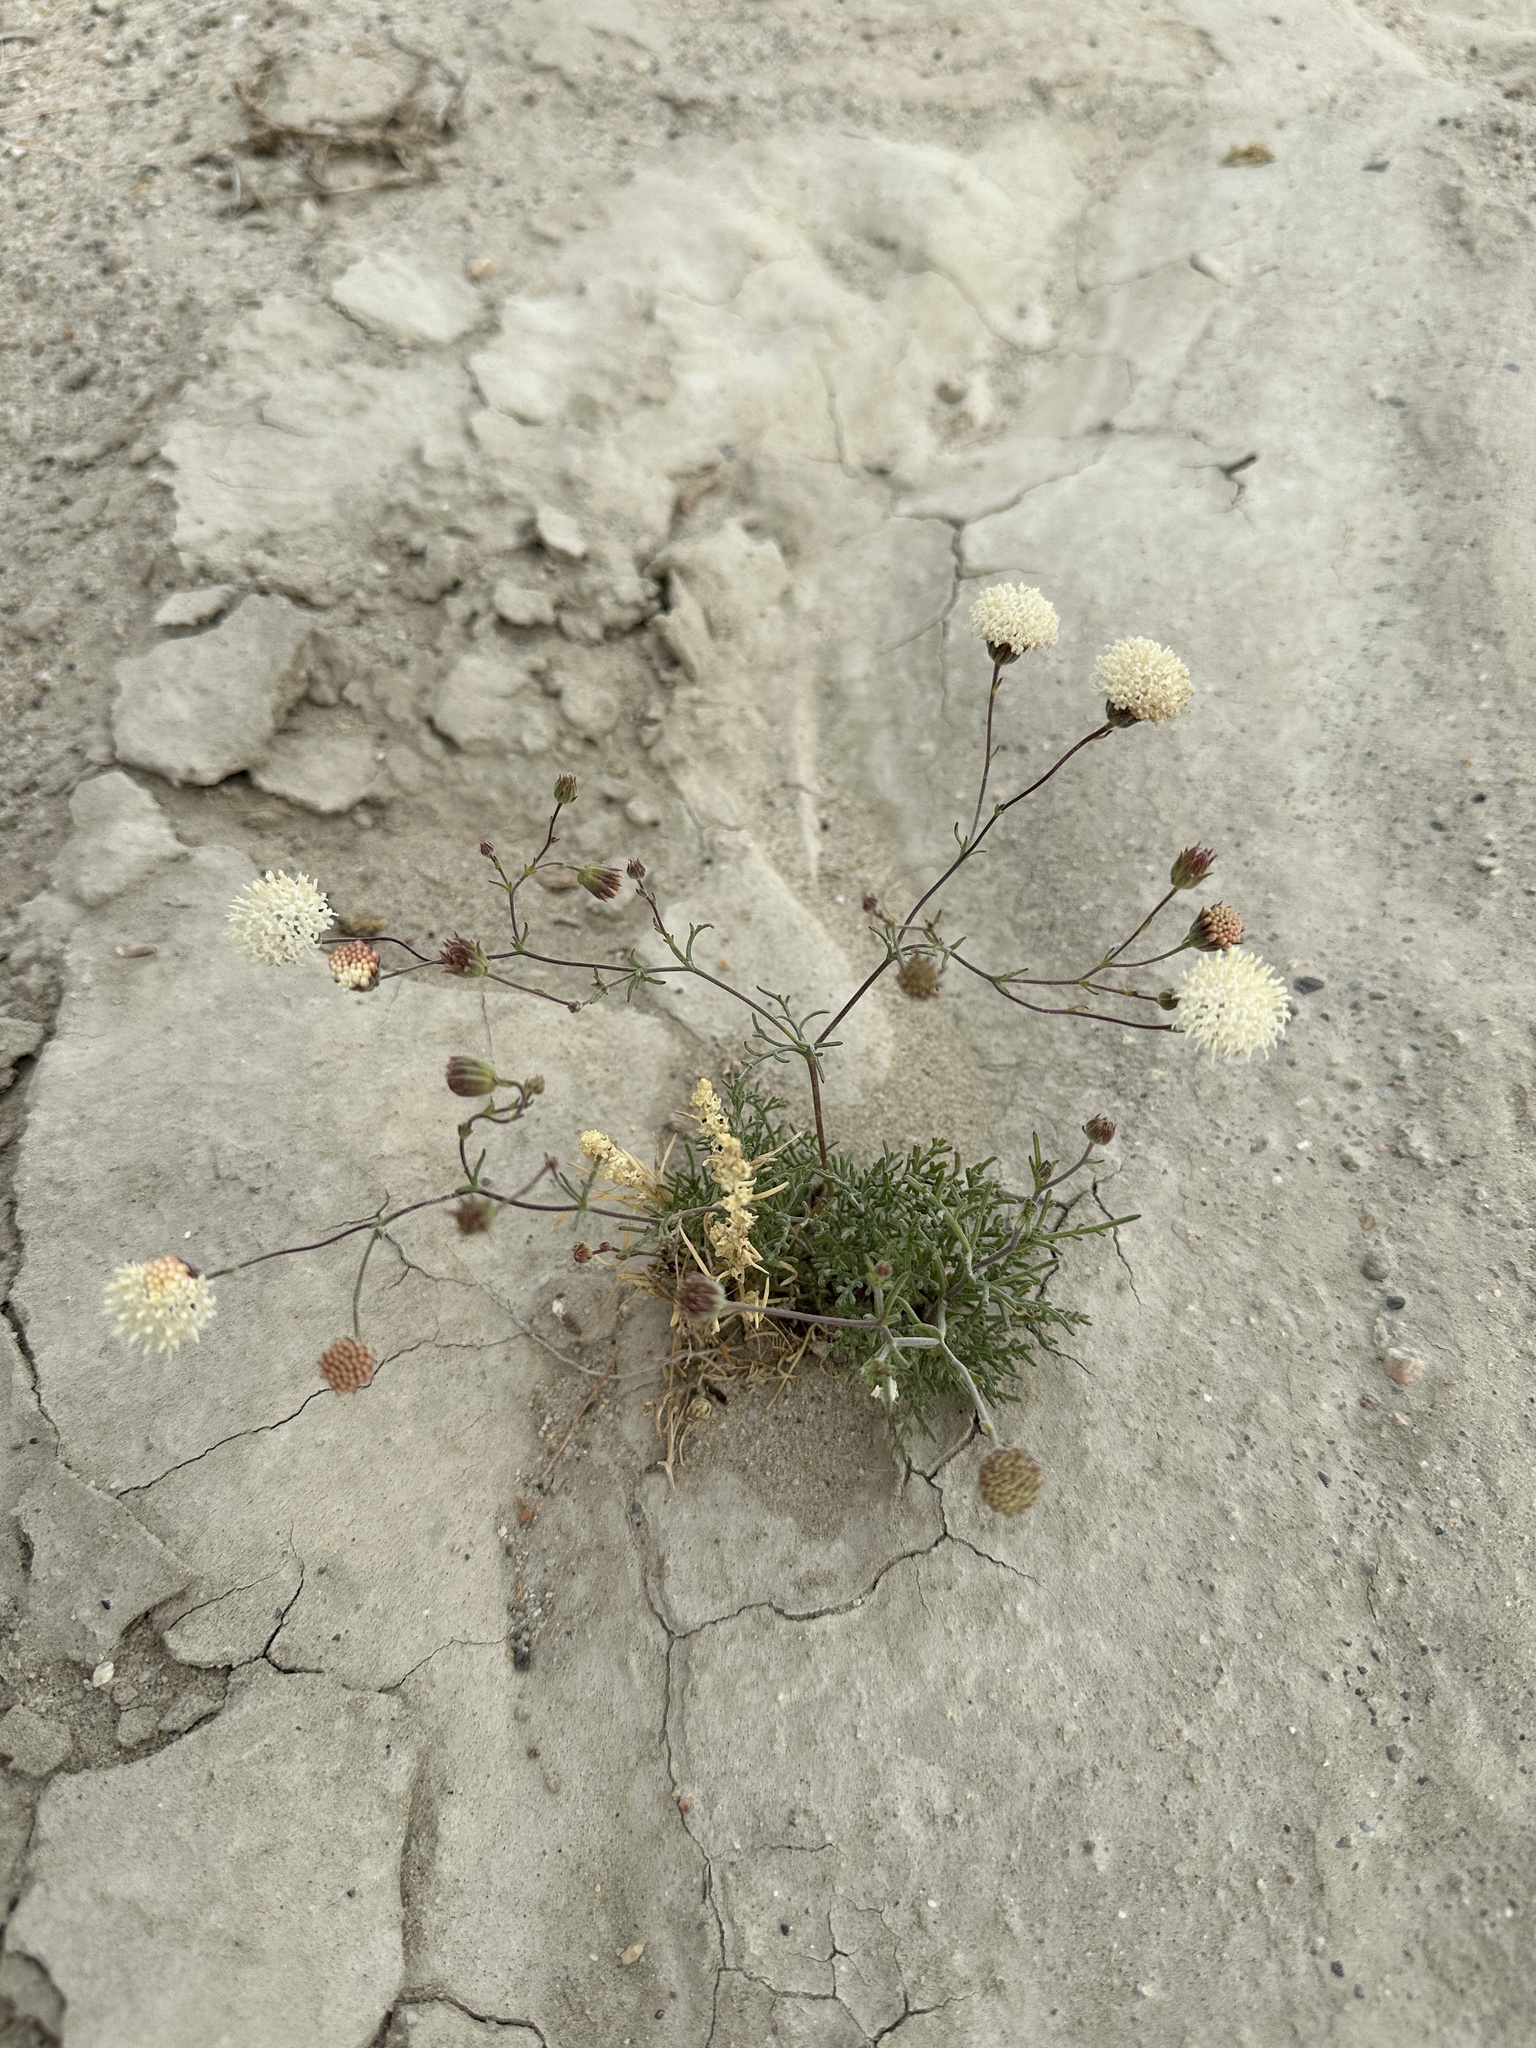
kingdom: Plantae
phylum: Tracheophyta
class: Magnoliopsida
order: Asterales
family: Asteraceae
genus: Chaenactis
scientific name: Chaenactis carphoclinia
